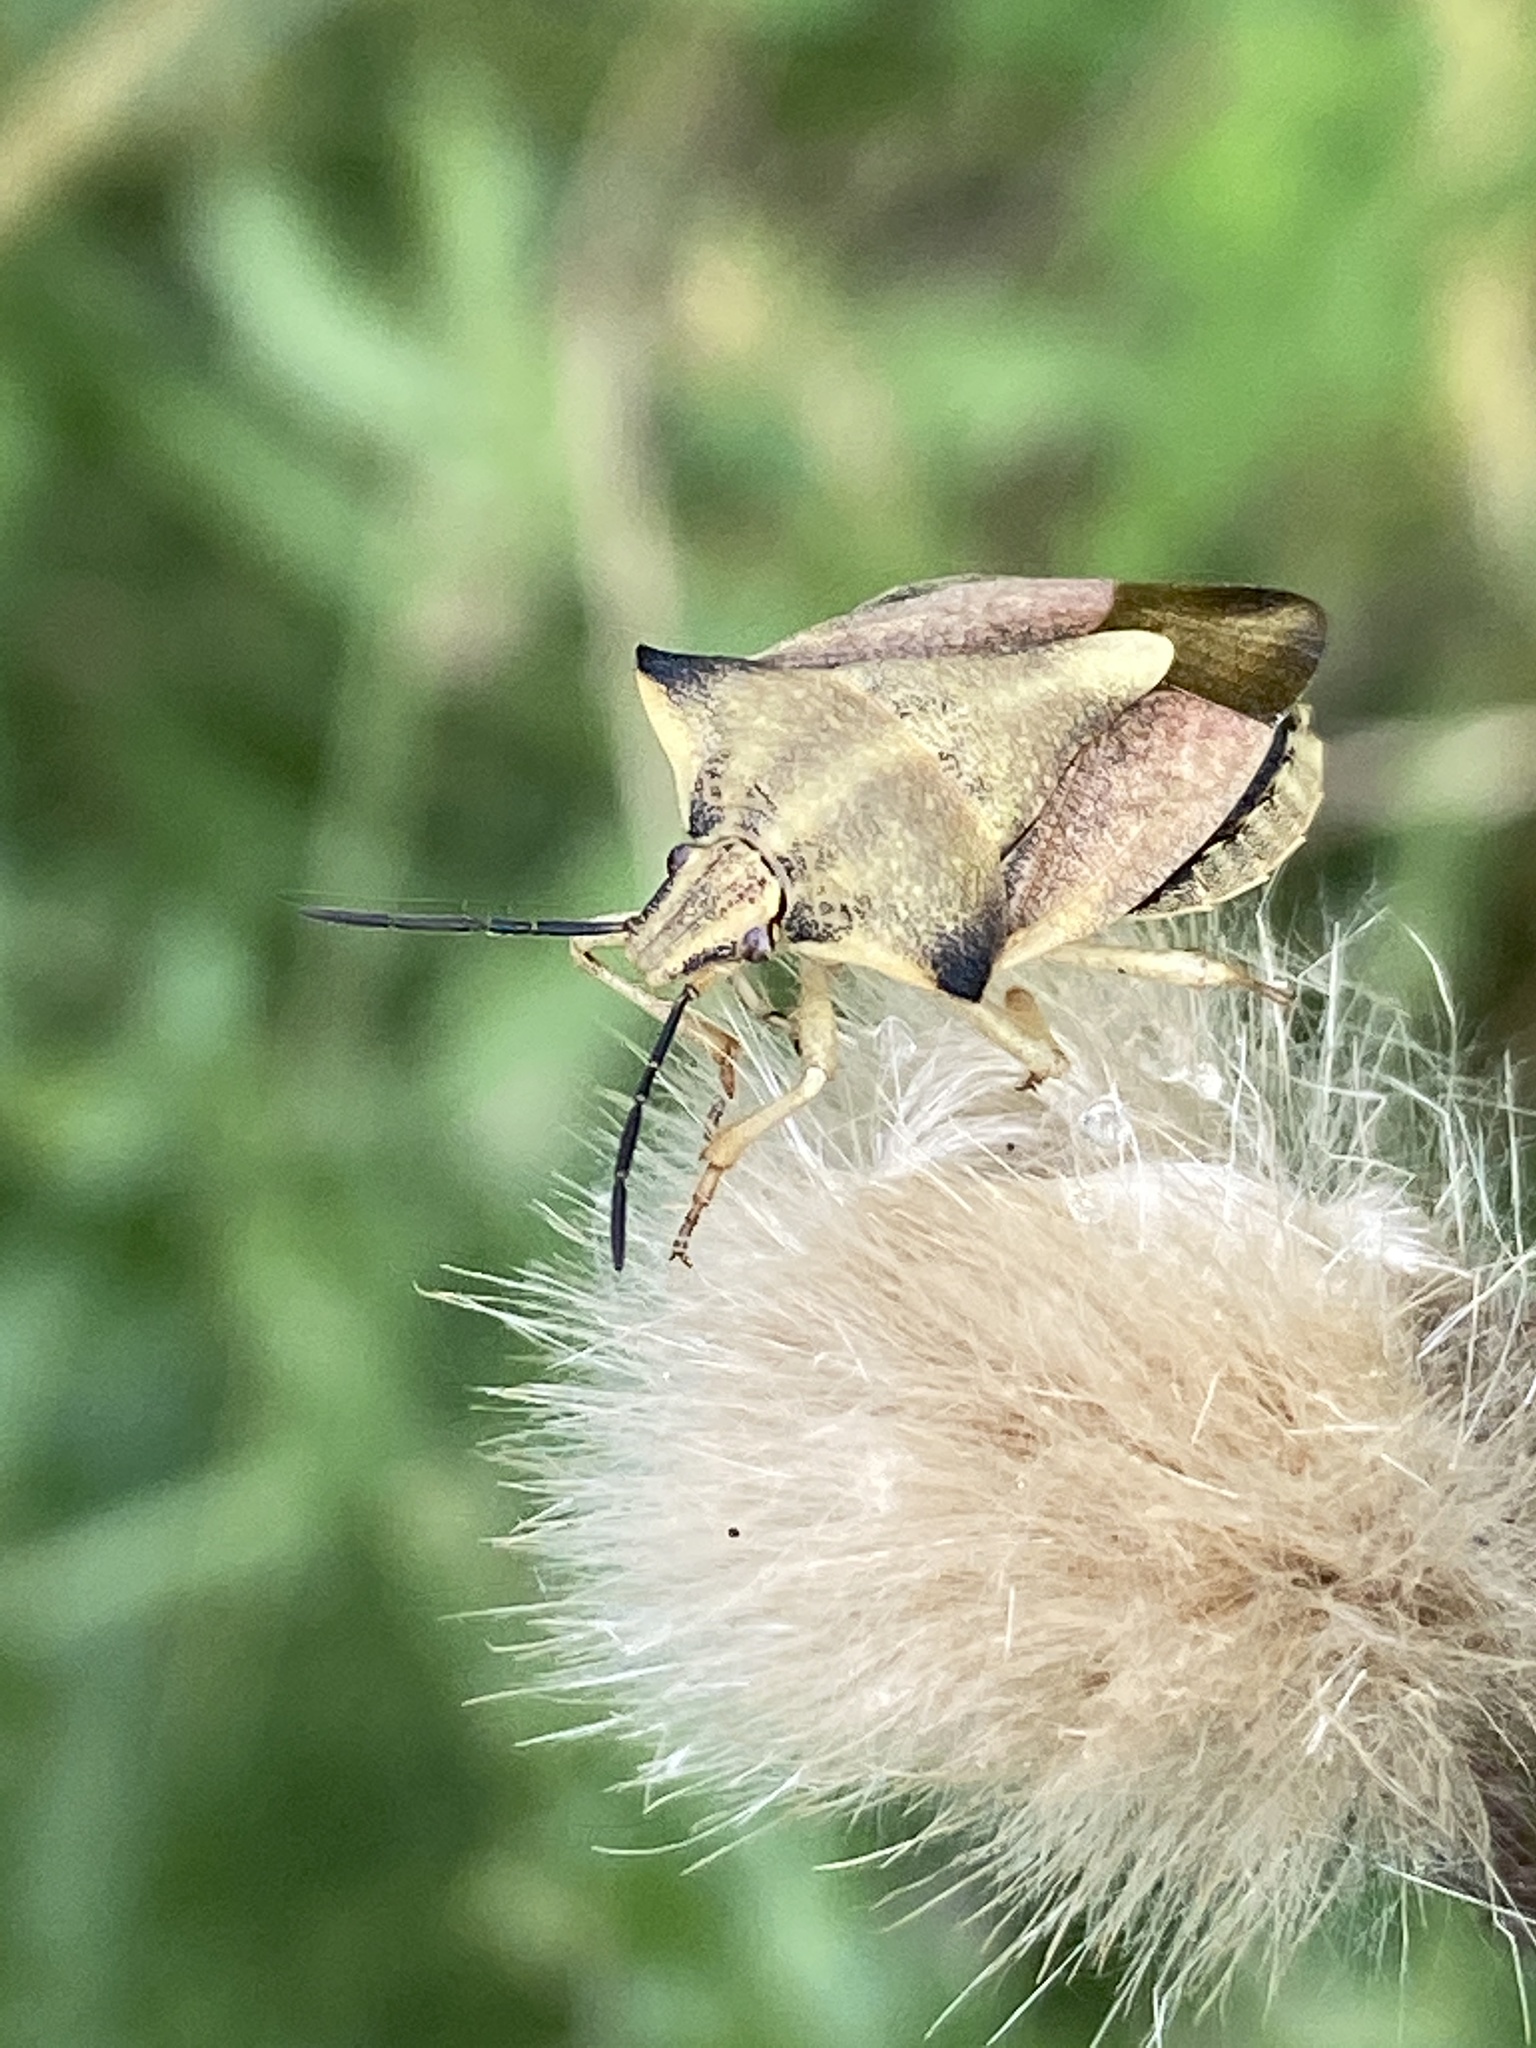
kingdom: Animalia
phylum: Arthropoda
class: Insecta
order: Hemiptera
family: Pentatomidae
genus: Carpocoris
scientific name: Carpocoris fuscispinus
